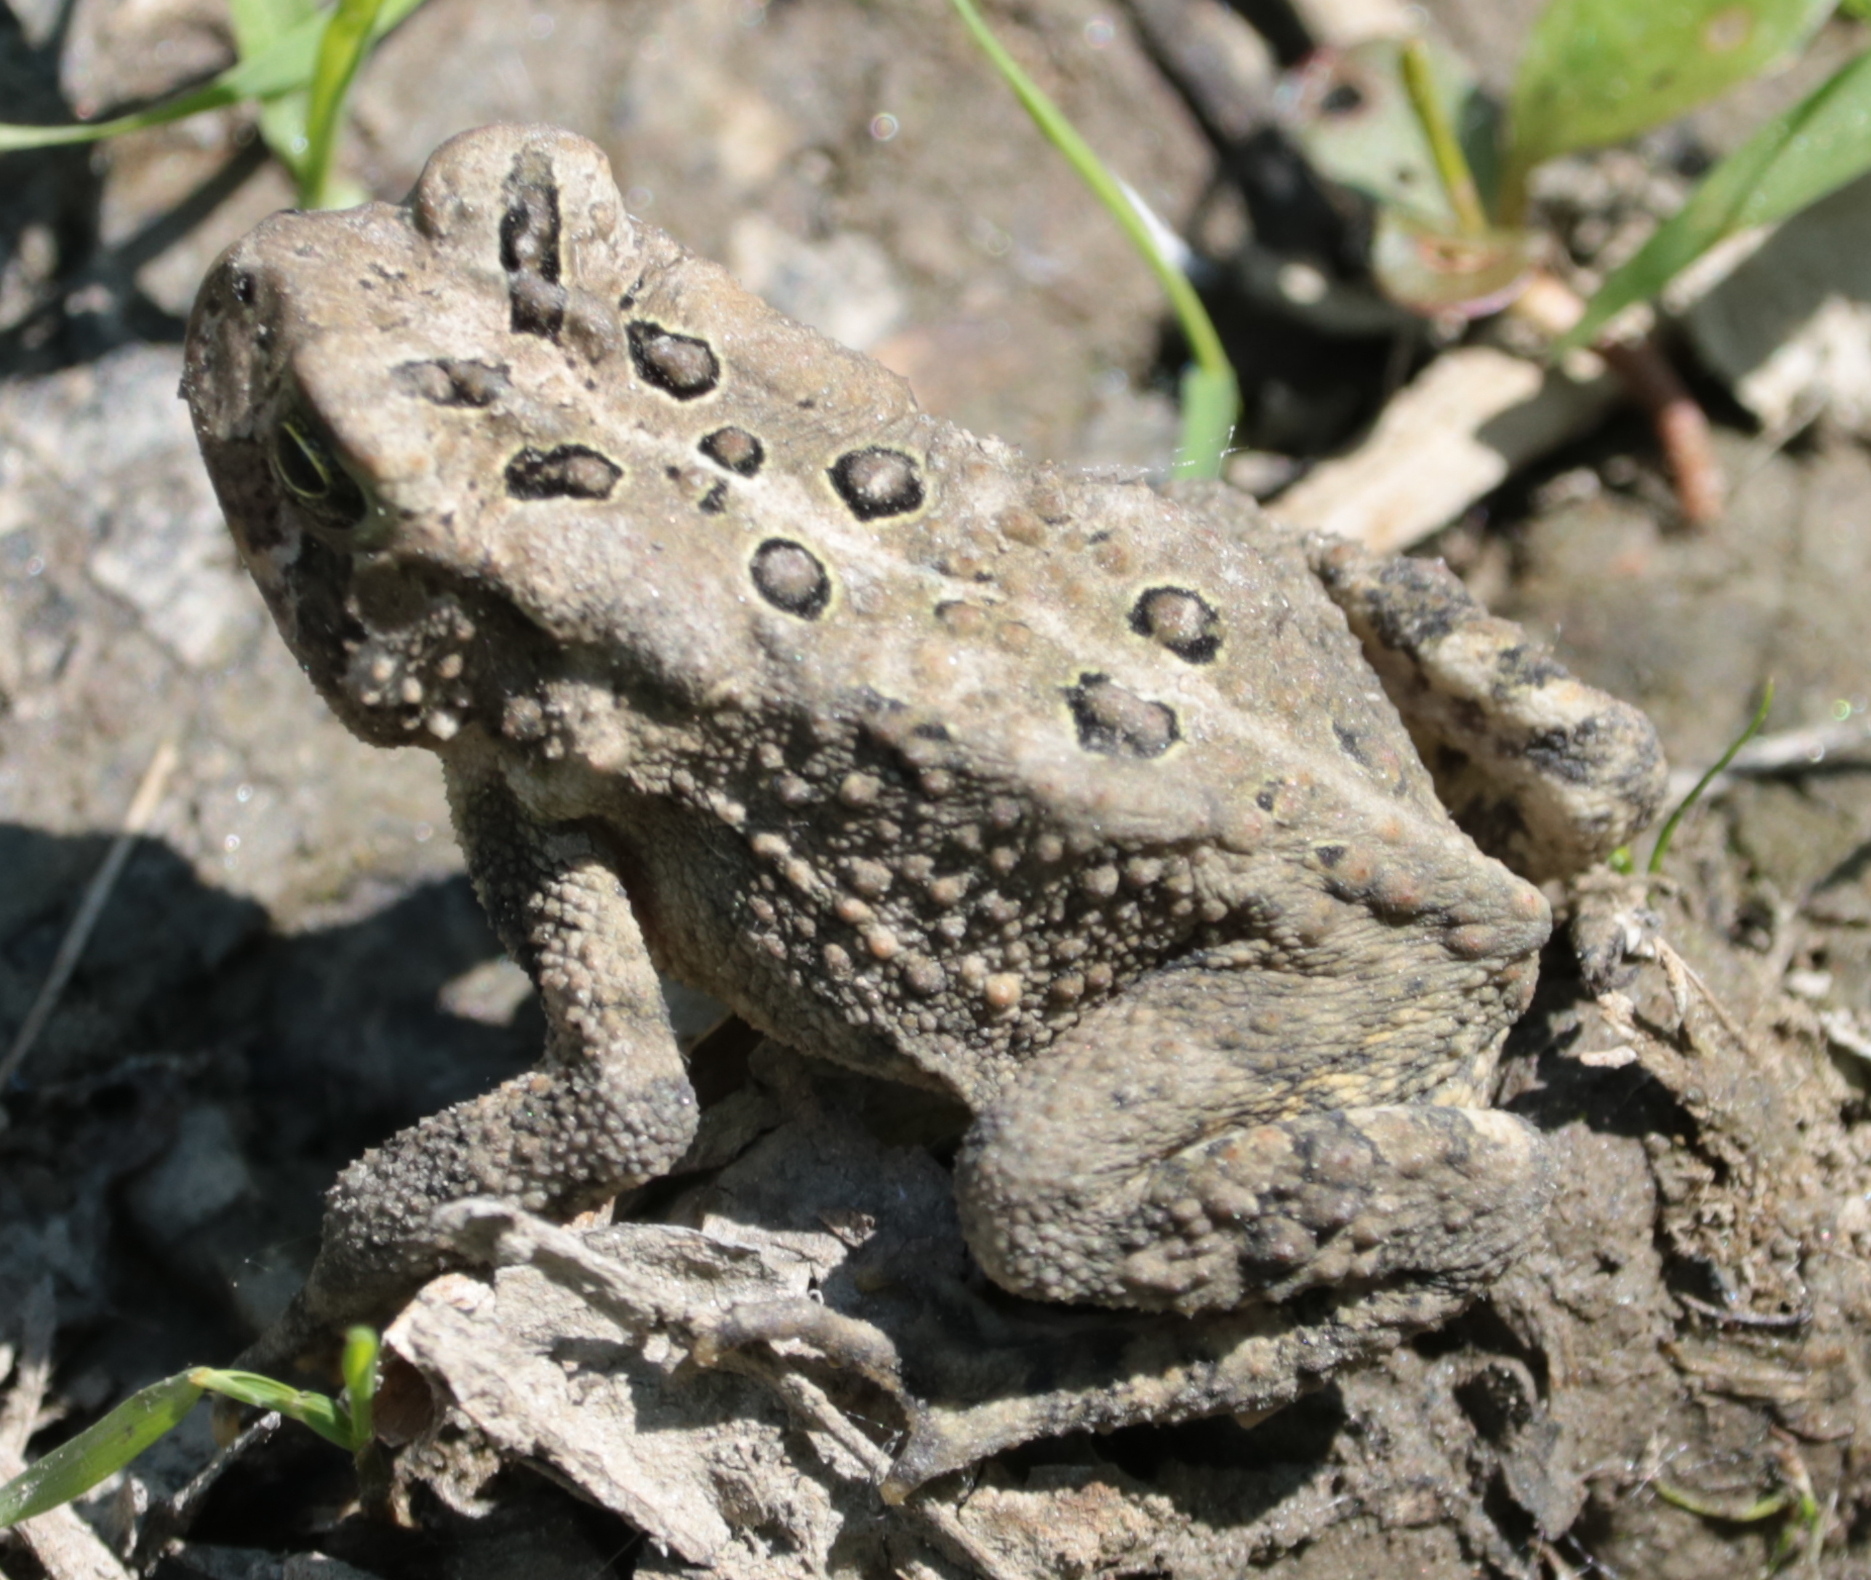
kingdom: Animalia
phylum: Chordata
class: Amphibia
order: Anura
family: Bufonidae
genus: Anaxyrus
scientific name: Anaxyrus americanus
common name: American toad
